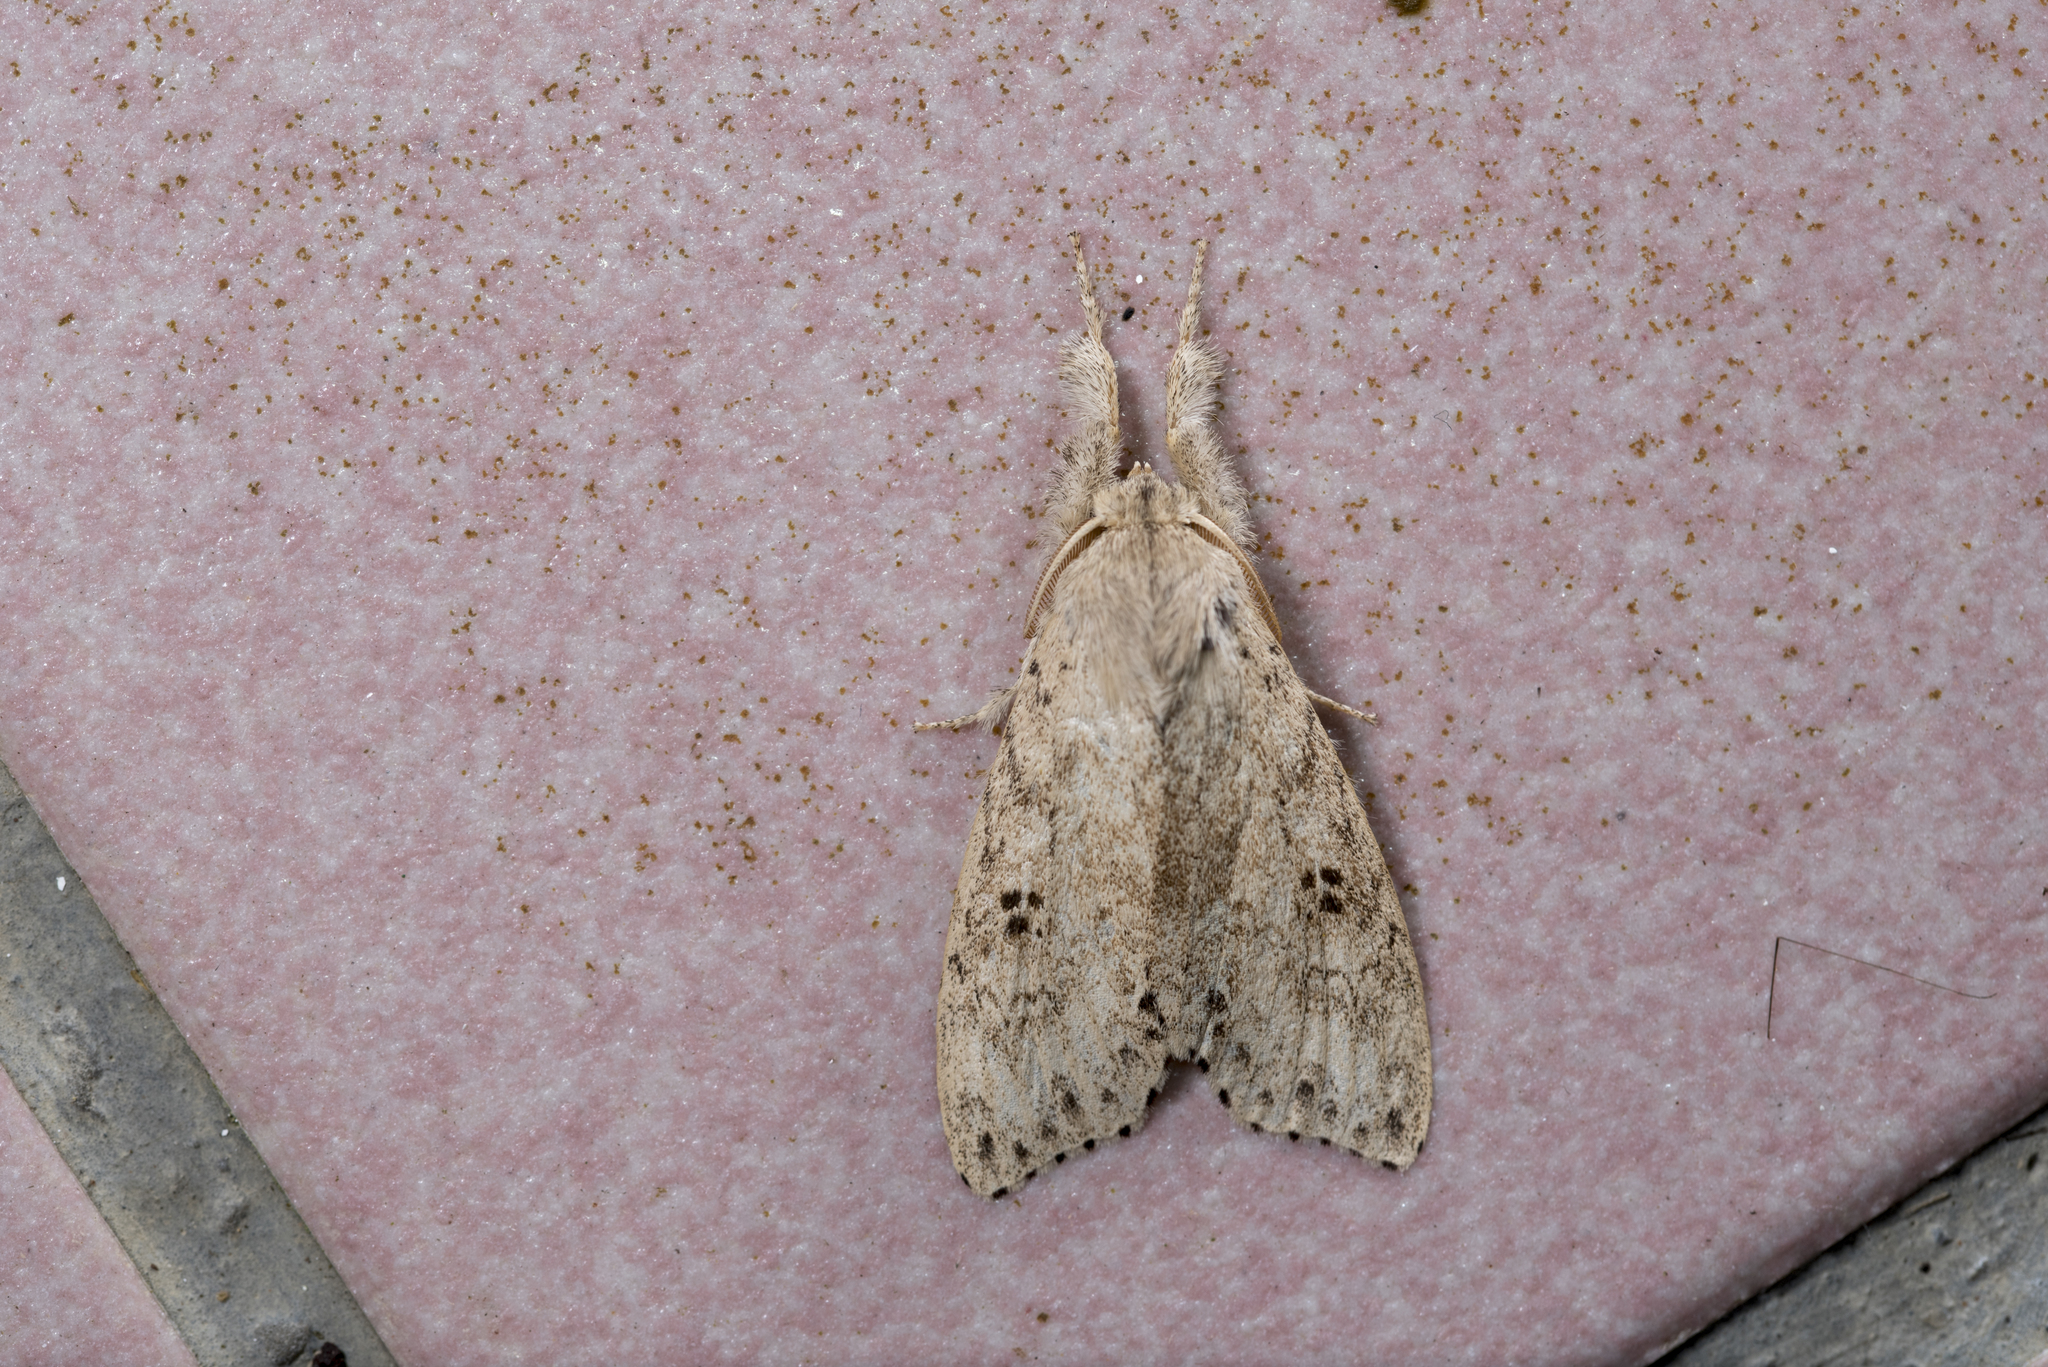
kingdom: Animalia
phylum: Arthropoda
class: Insecta
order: Lepidoptera
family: Erebidae
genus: Calliteara
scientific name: Calliteara angulata
